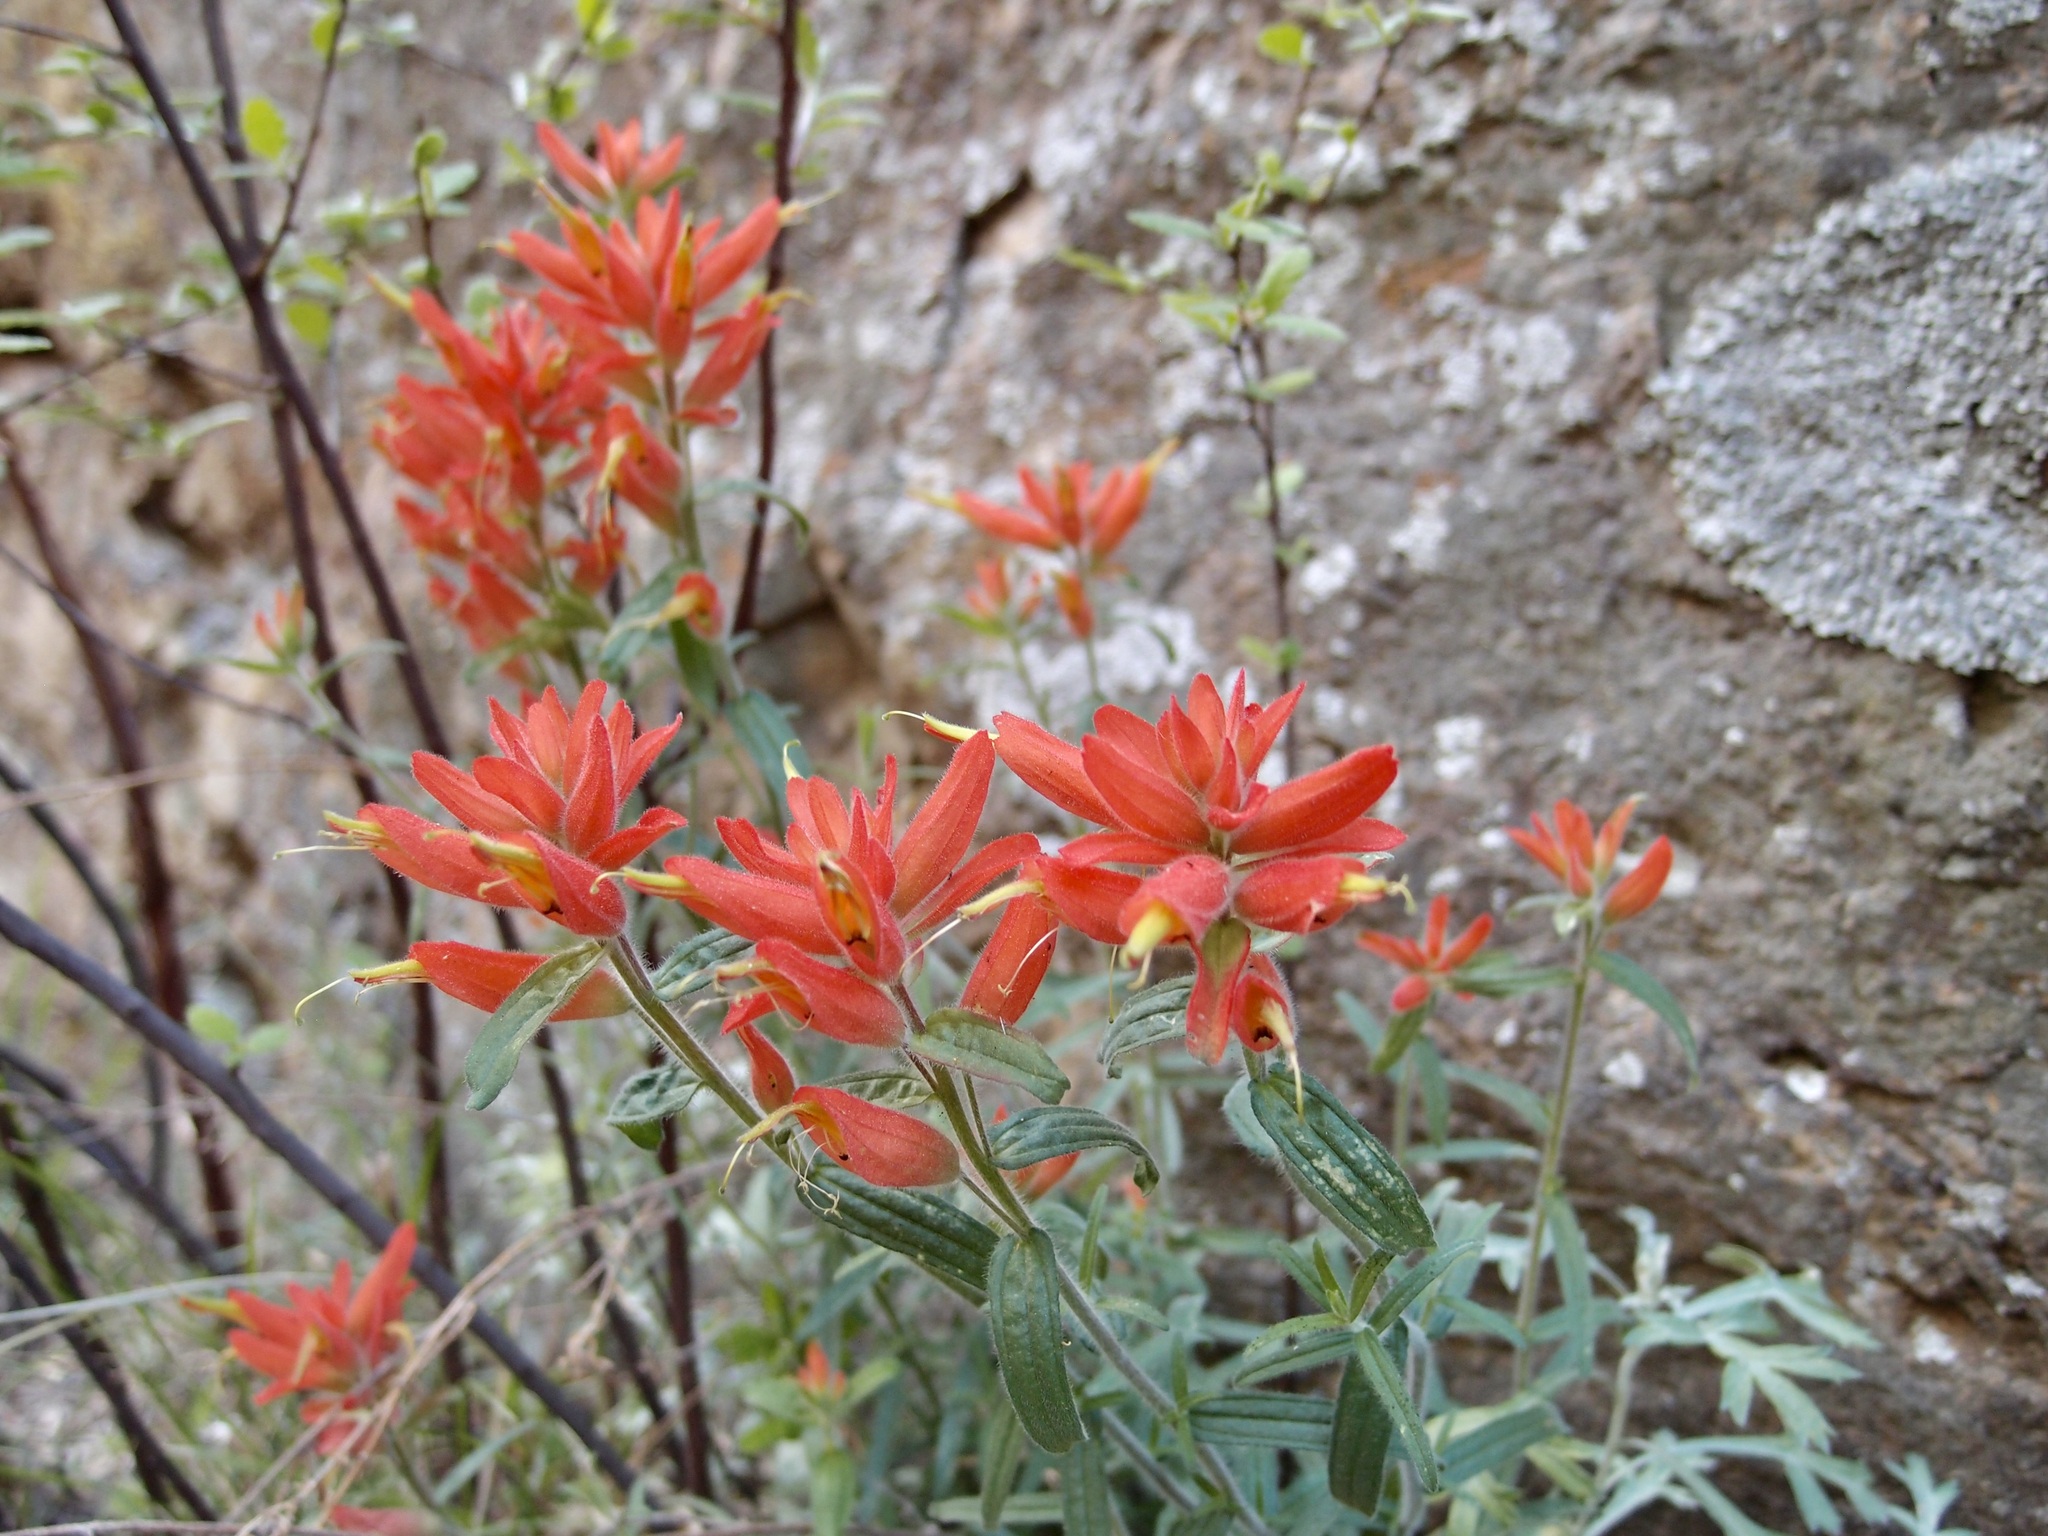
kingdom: Plantae
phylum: Tracheophyta
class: Magnoliopsida
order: Lamiales
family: Orobanchaceae
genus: Castilleja
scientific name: Castilleja tenuiflora
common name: Santa catalina indian paintbrush
